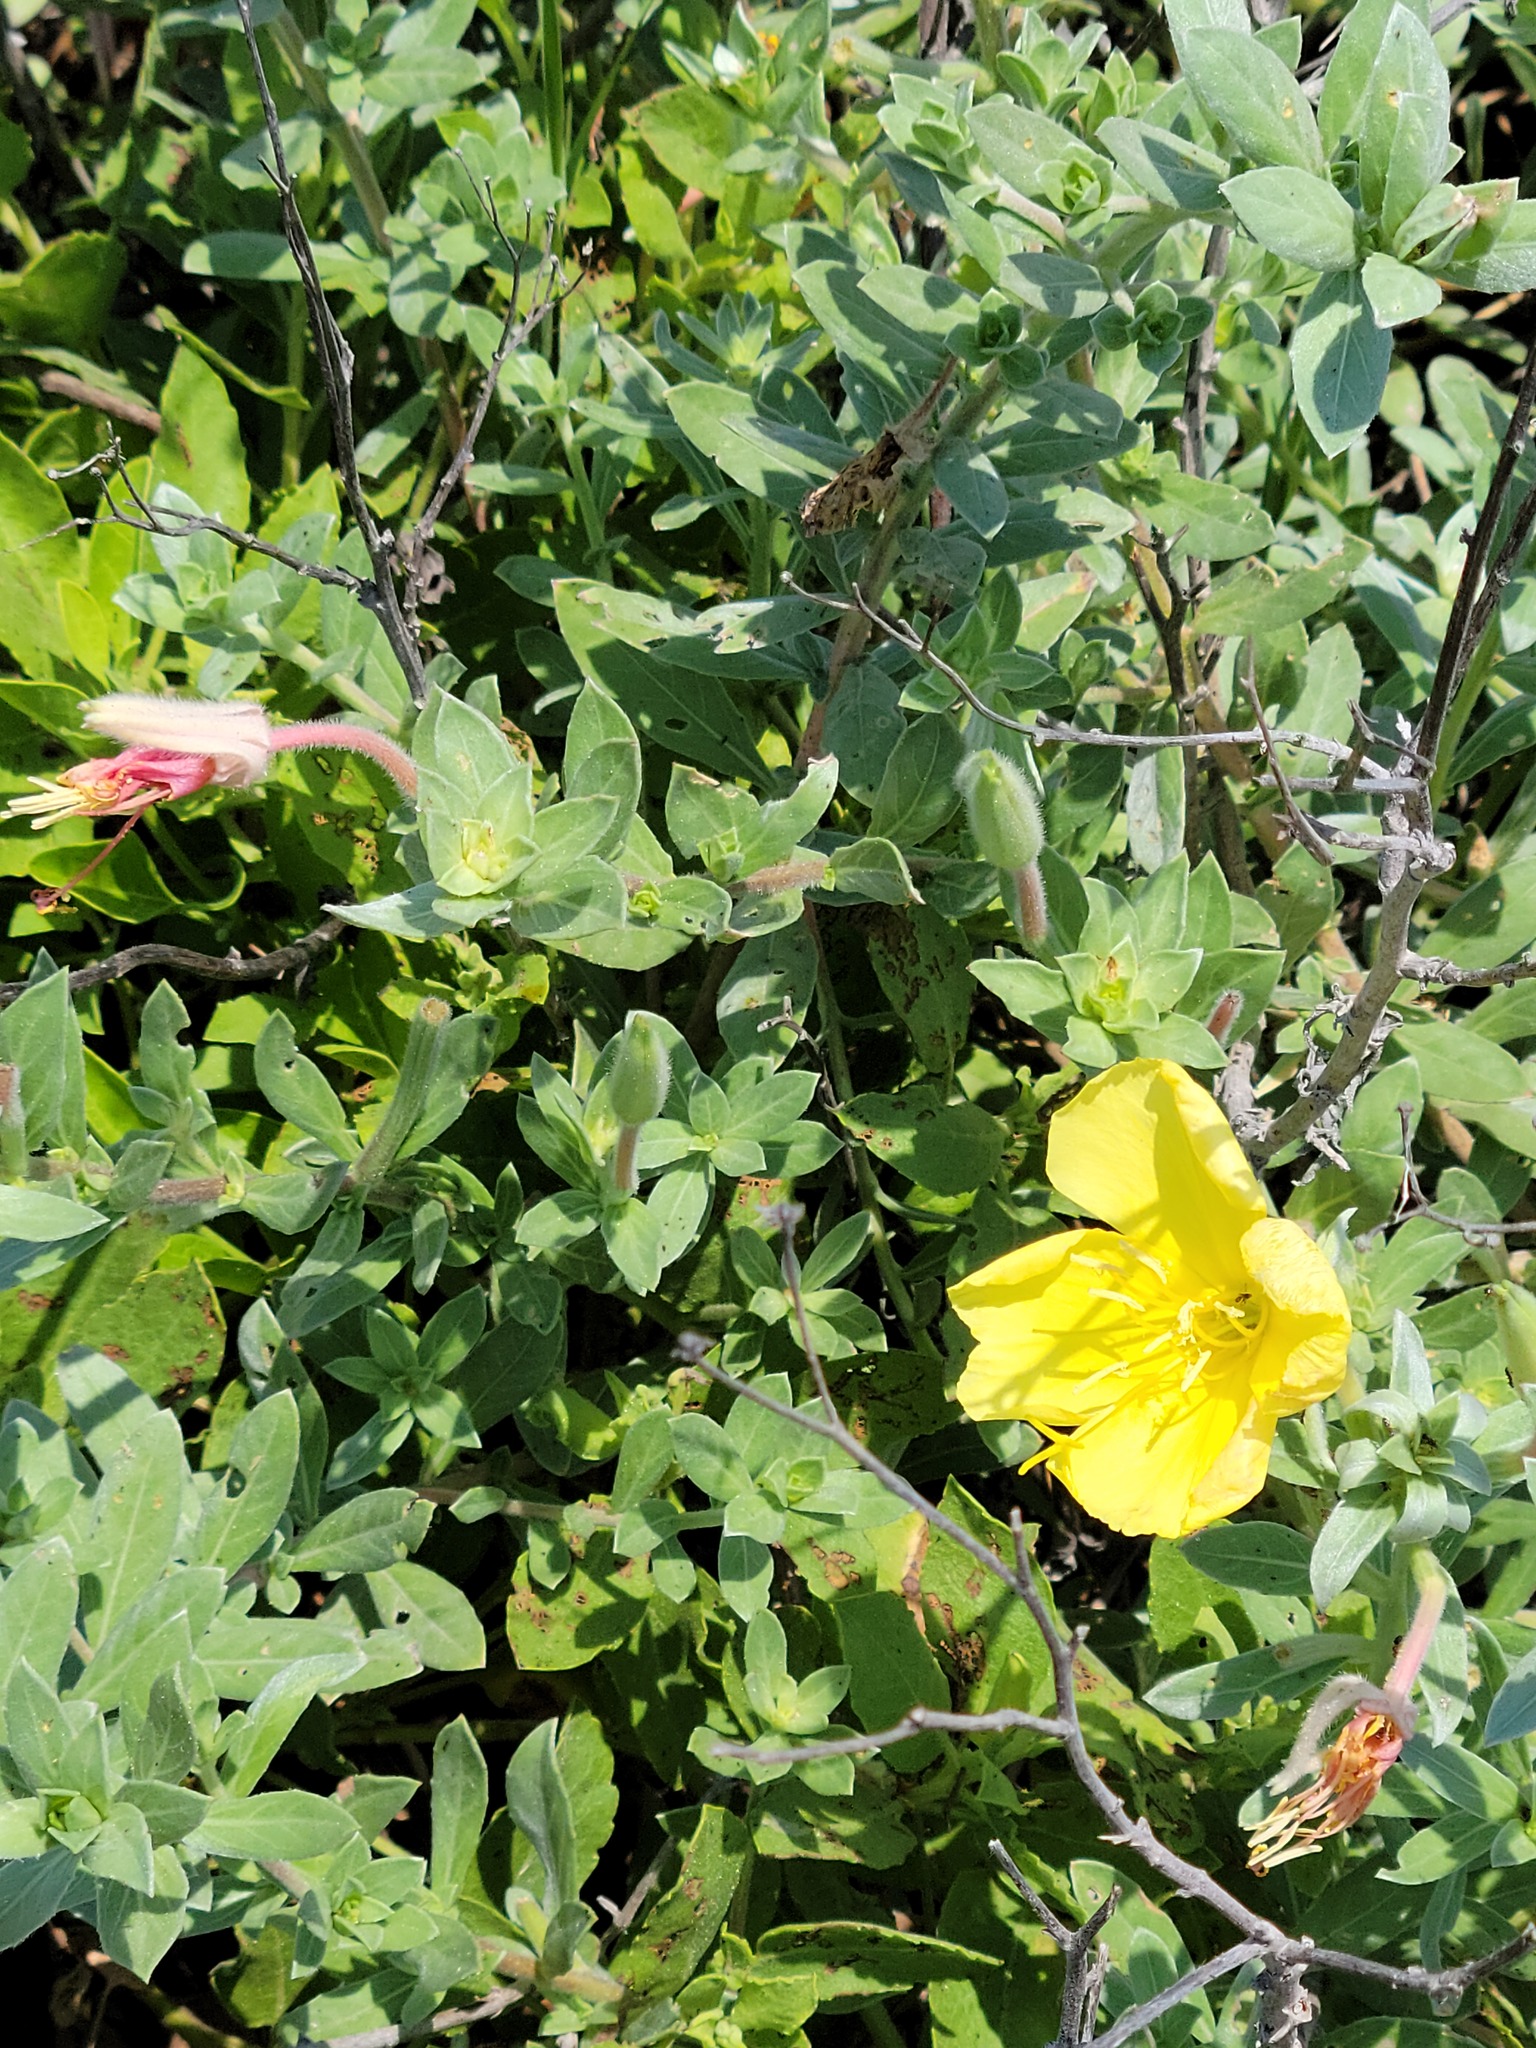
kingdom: Plantae
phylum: Tracheophyta
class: Magnoliopsida
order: Myrtales
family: Onagraceae
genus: Oenothera
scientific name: Oenothera drummondii
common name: Beach evening-primrose
